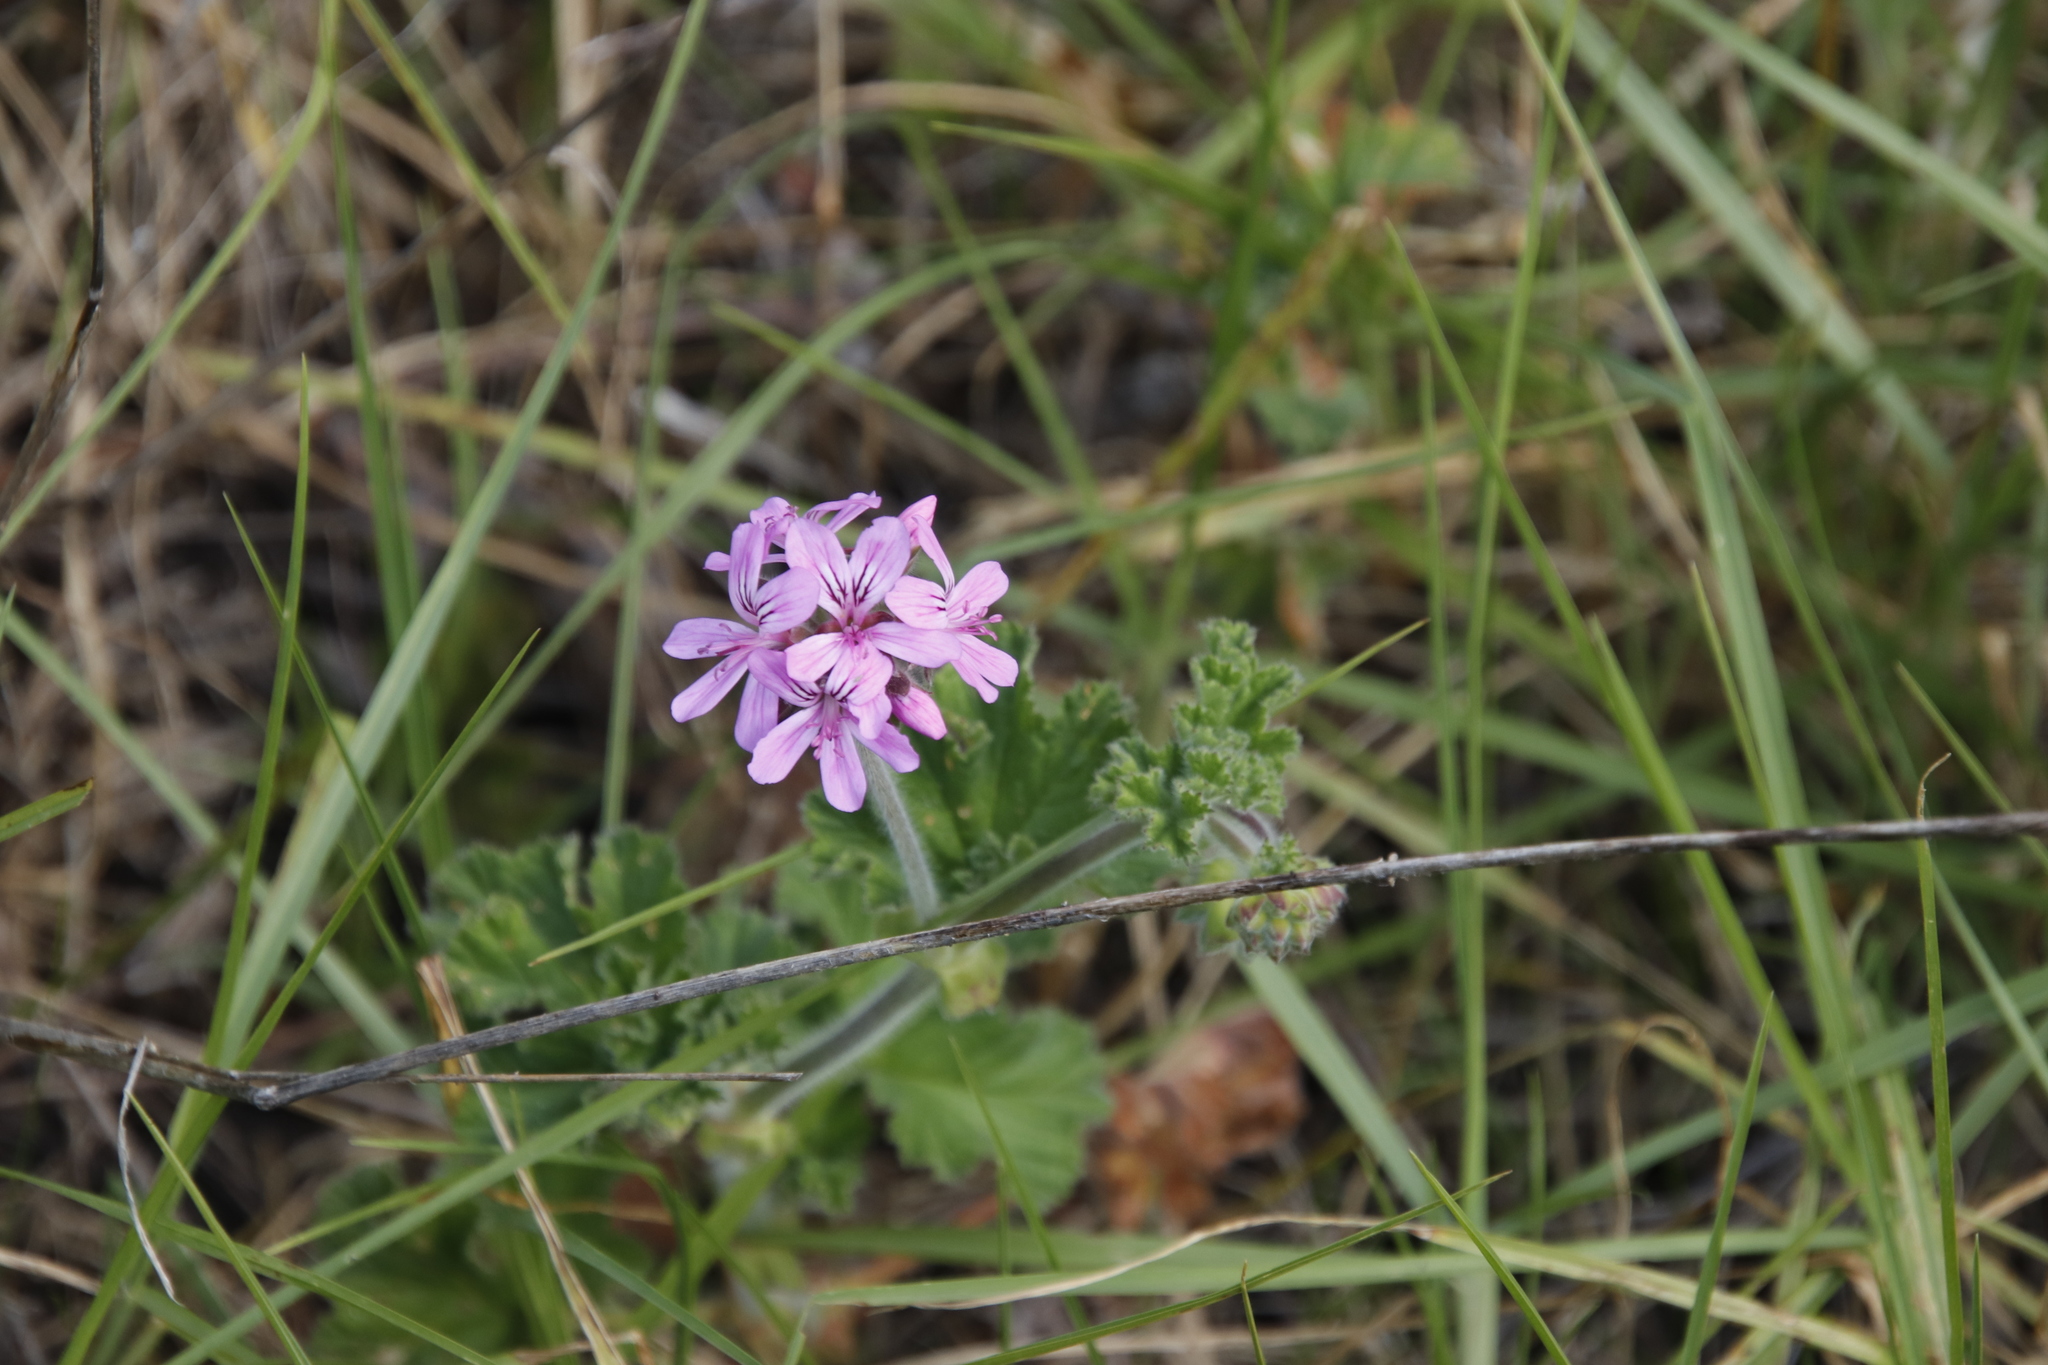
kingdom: Plantae
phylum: Tracheophyta
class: Magnoliopsida
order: Geraniales
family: Geraniaceae
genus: Pelargonium
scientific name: Pelargonium capitatum
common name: Rose scented geranium
